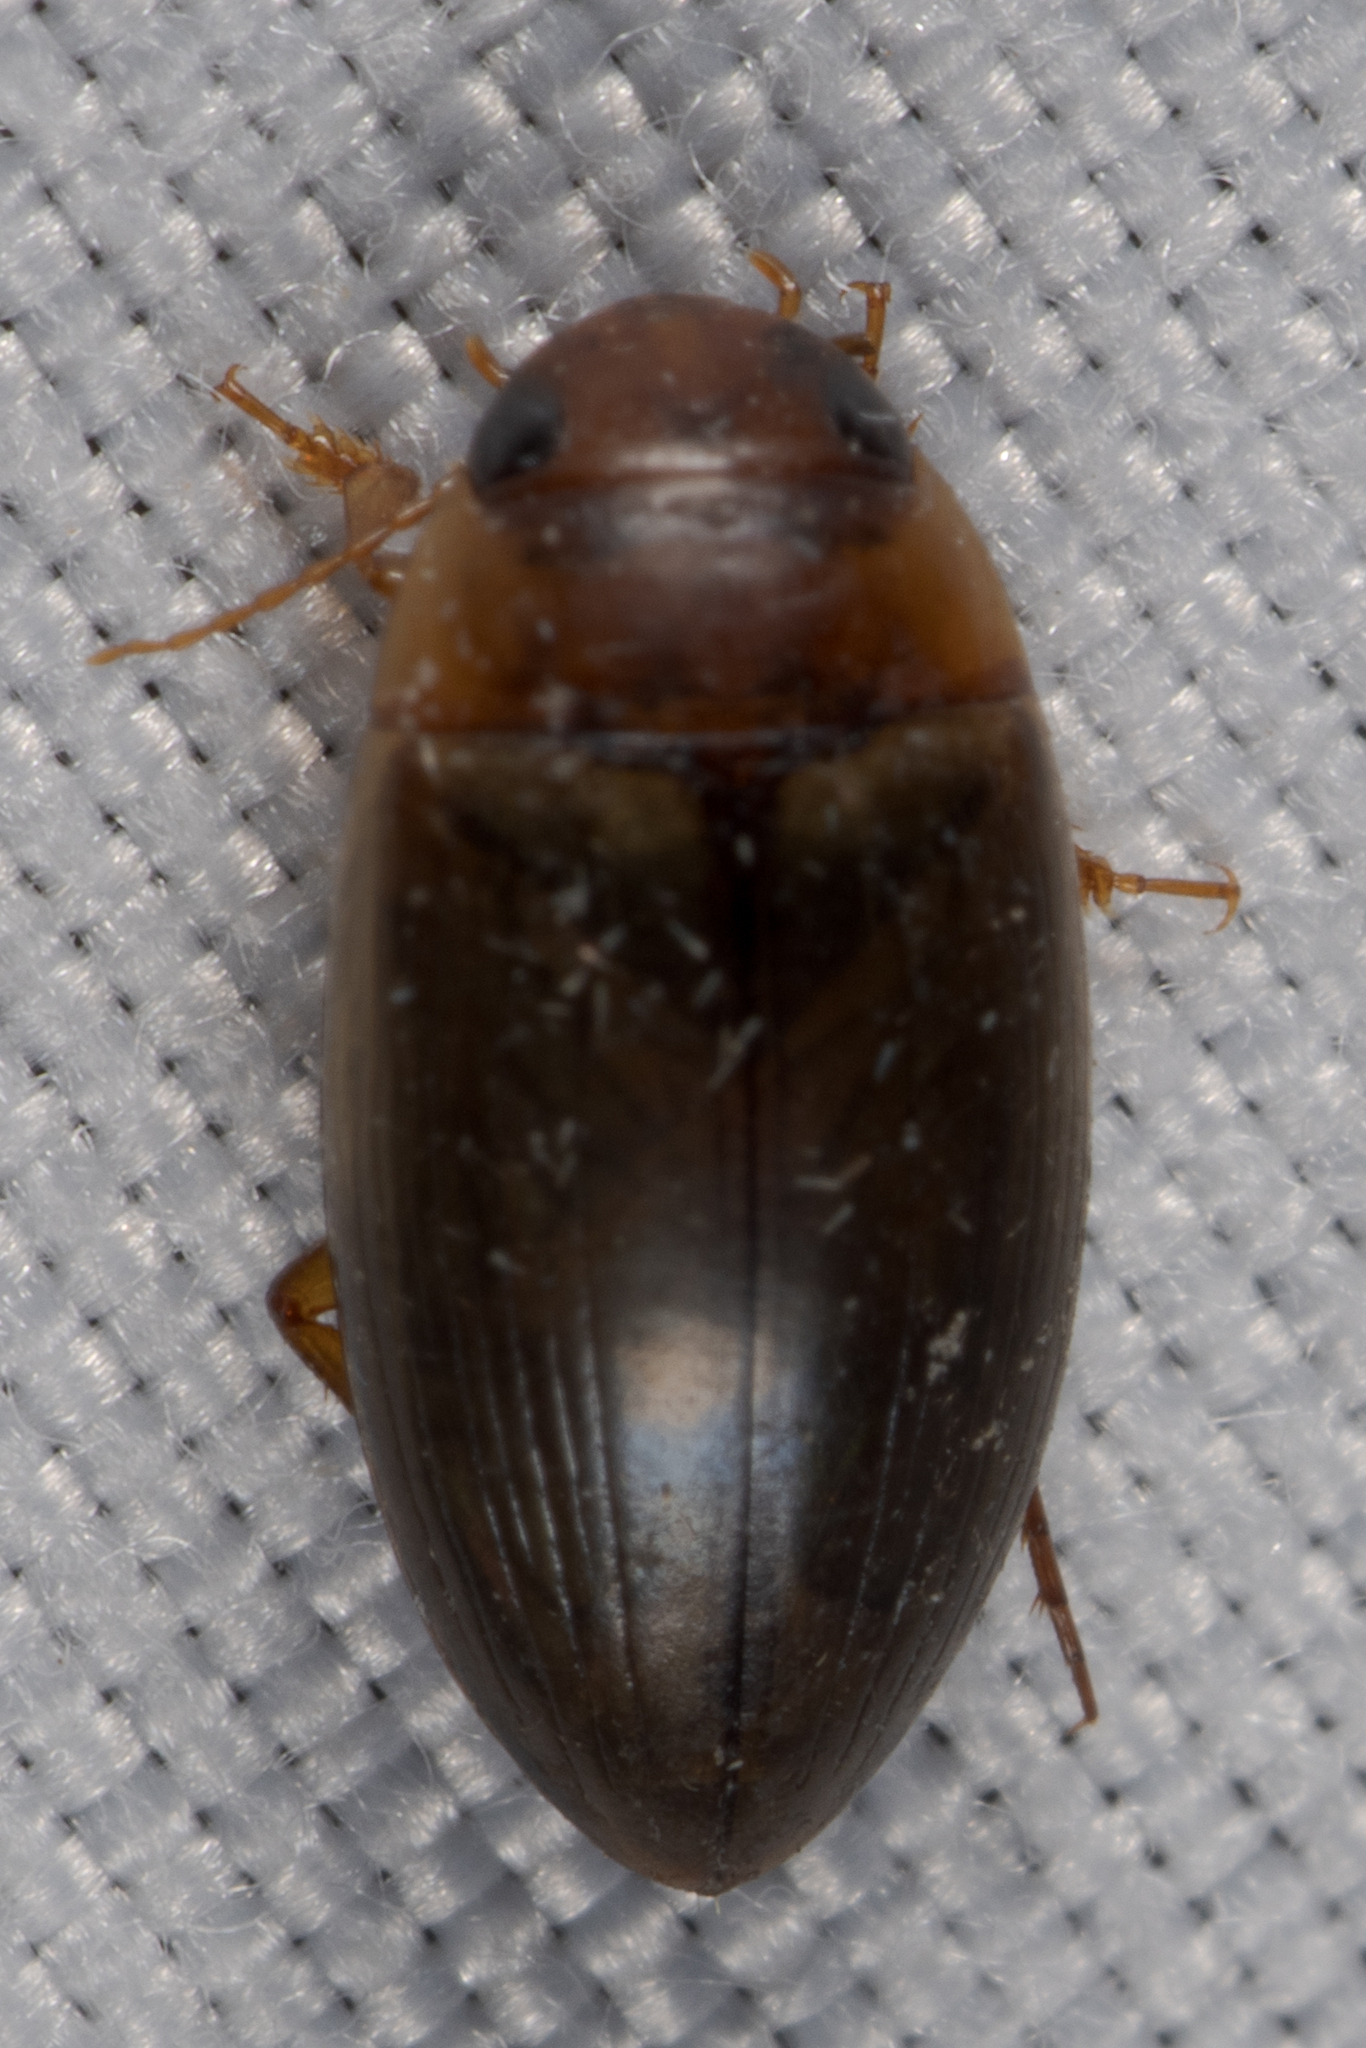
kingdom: Animalia
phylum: Arthropoda
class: Insecta
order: Coleoptera
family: Dytiscidae
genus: Copelatus
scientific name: Copelatus chevrolati
